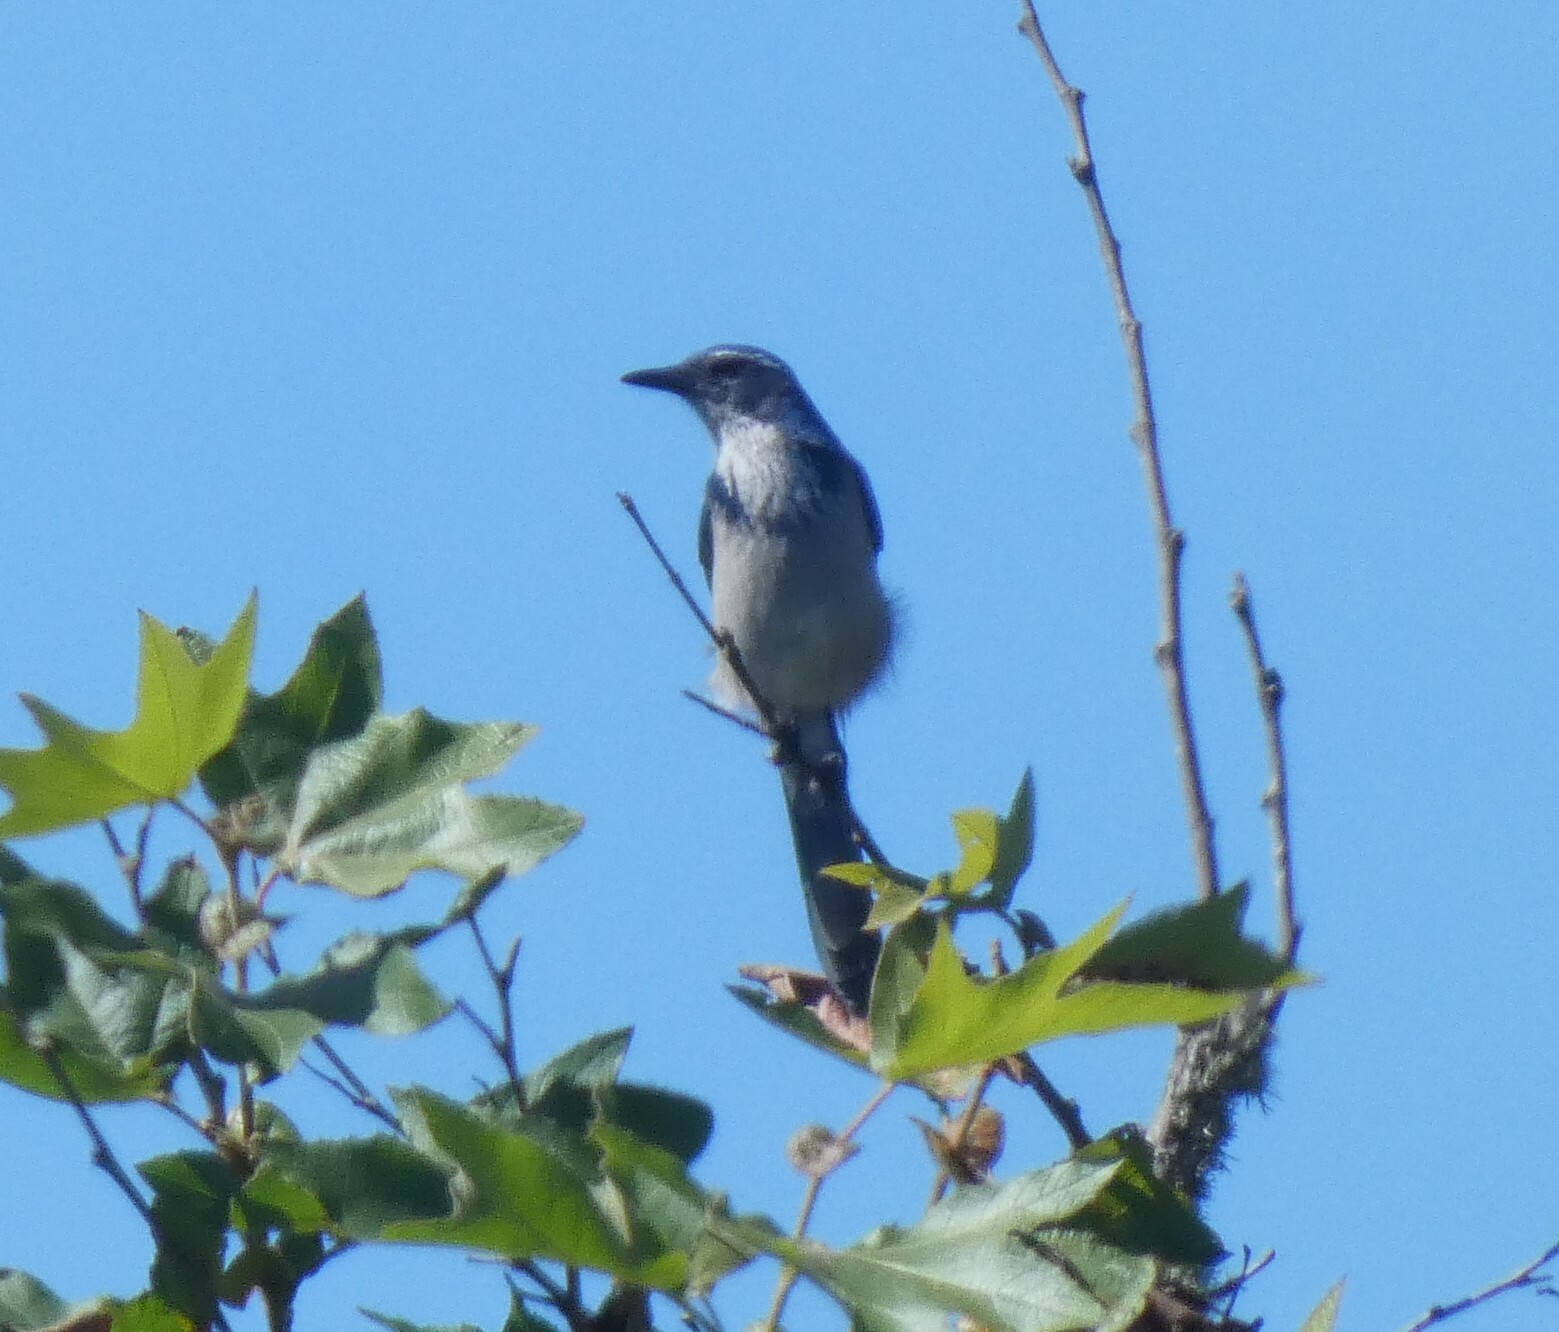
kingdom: Animalia
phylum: Chordata
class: Aves
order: Passeriformes
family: Corvidae
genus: Aphelocoma
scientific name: Aphelocoma californica
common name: California scrub-jay
